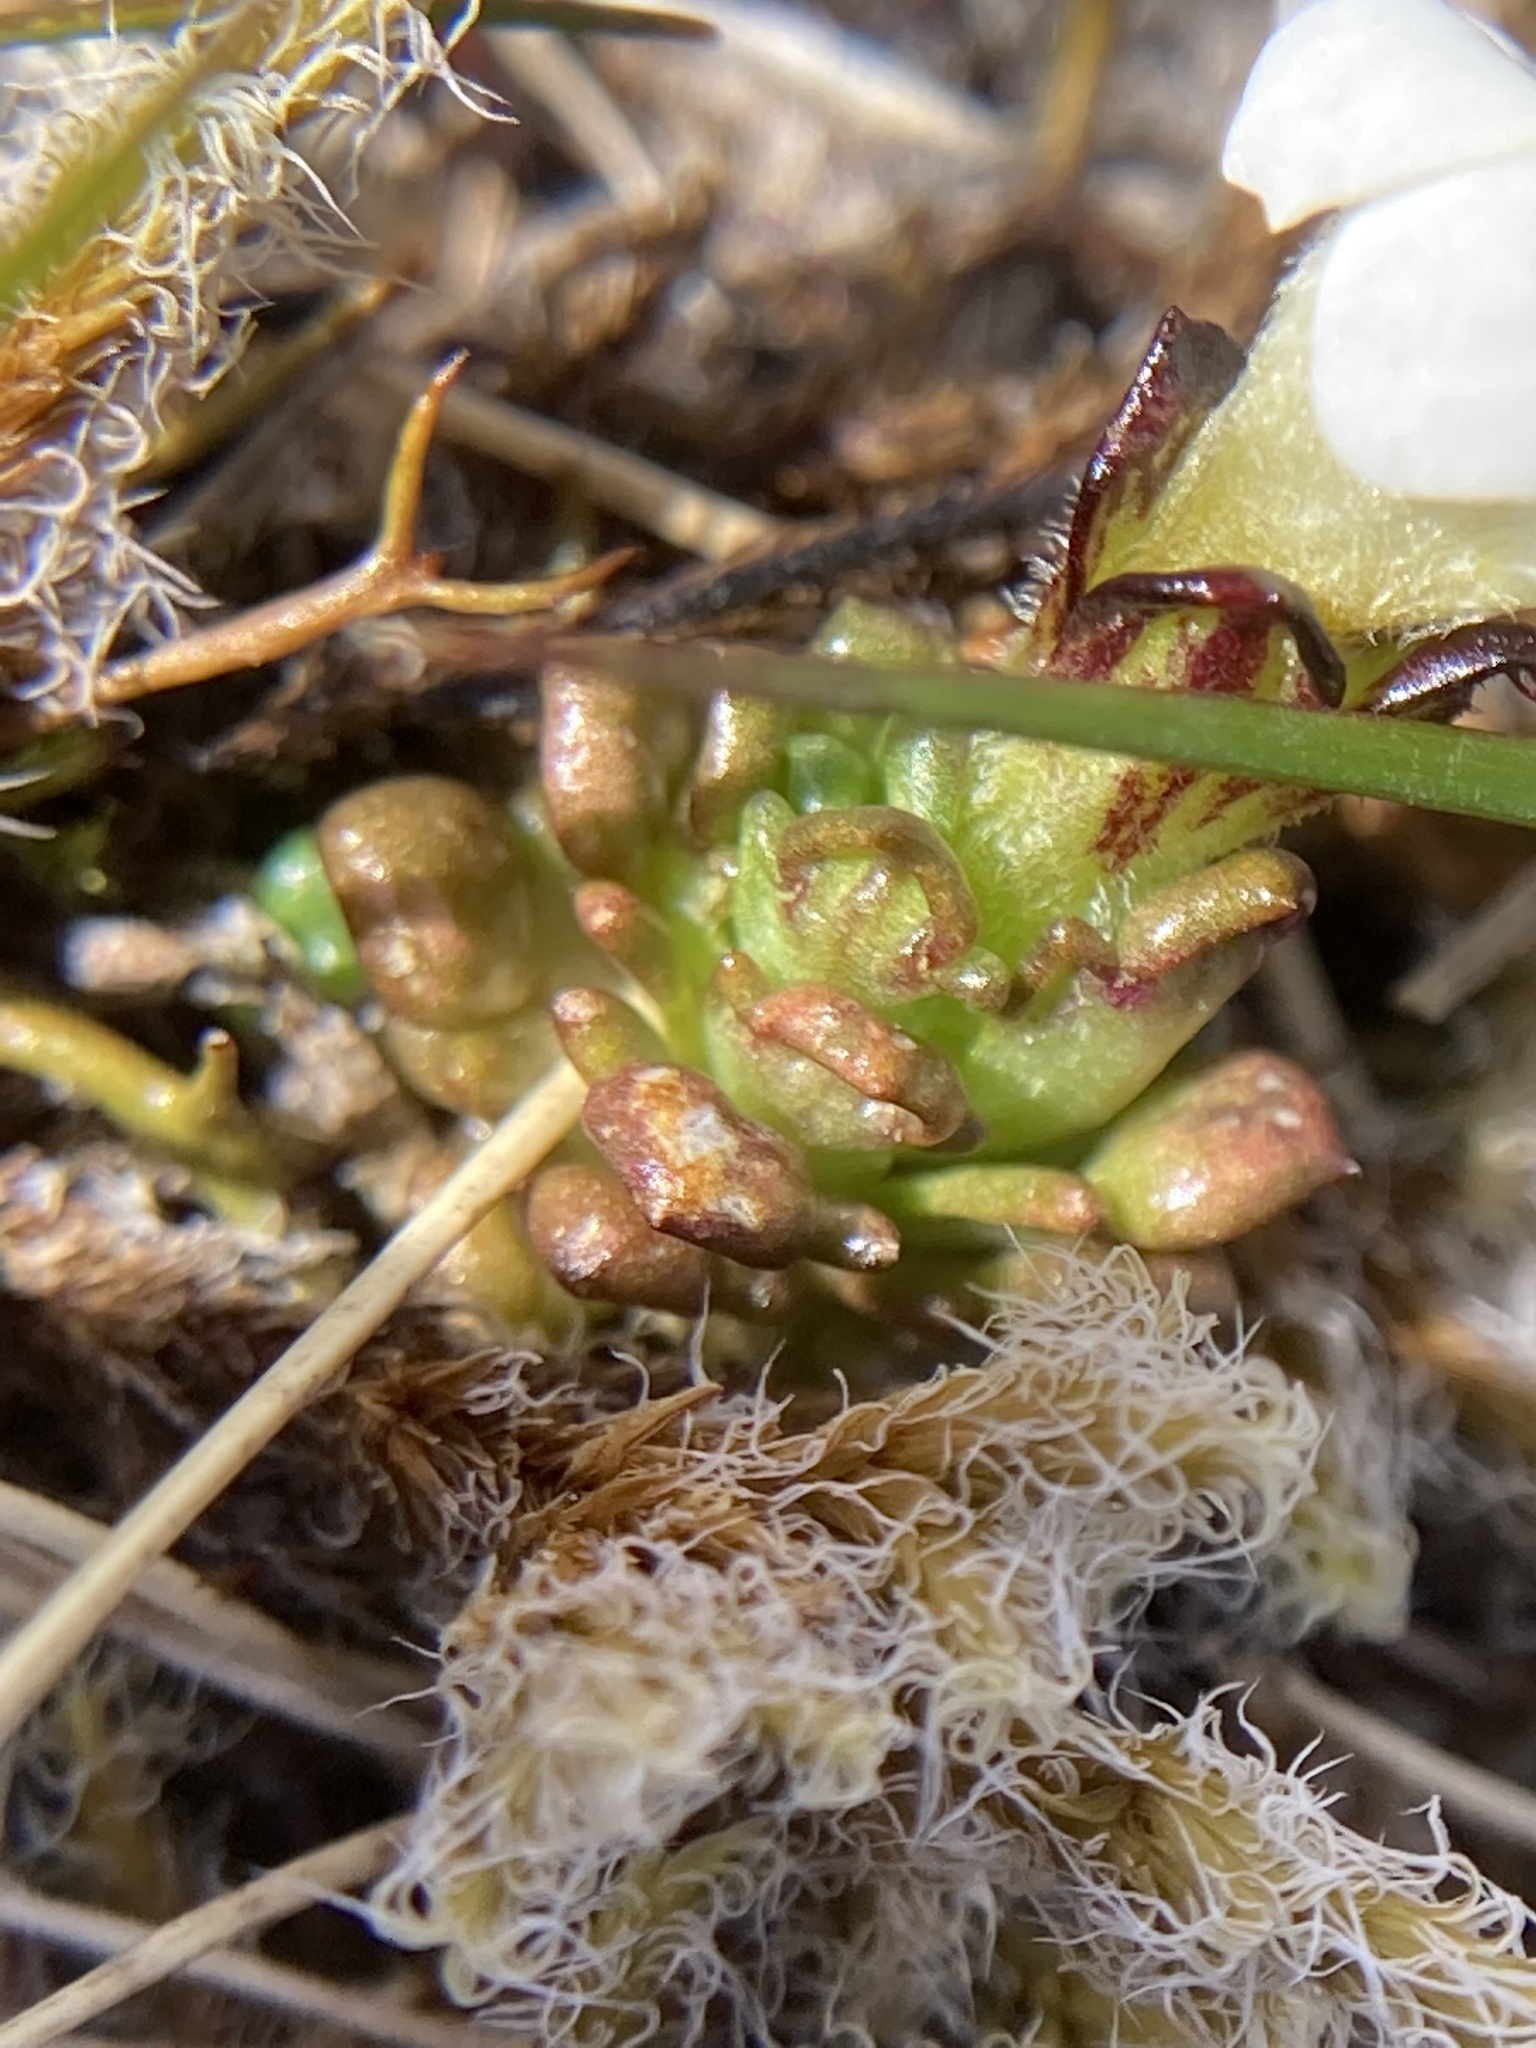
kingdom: Plantae
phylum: Tracheophyta
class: Magnoliopsida
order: Lamiales
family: Orobanchaceae
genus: Euphrasia
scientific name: Euphrasia revoluta
